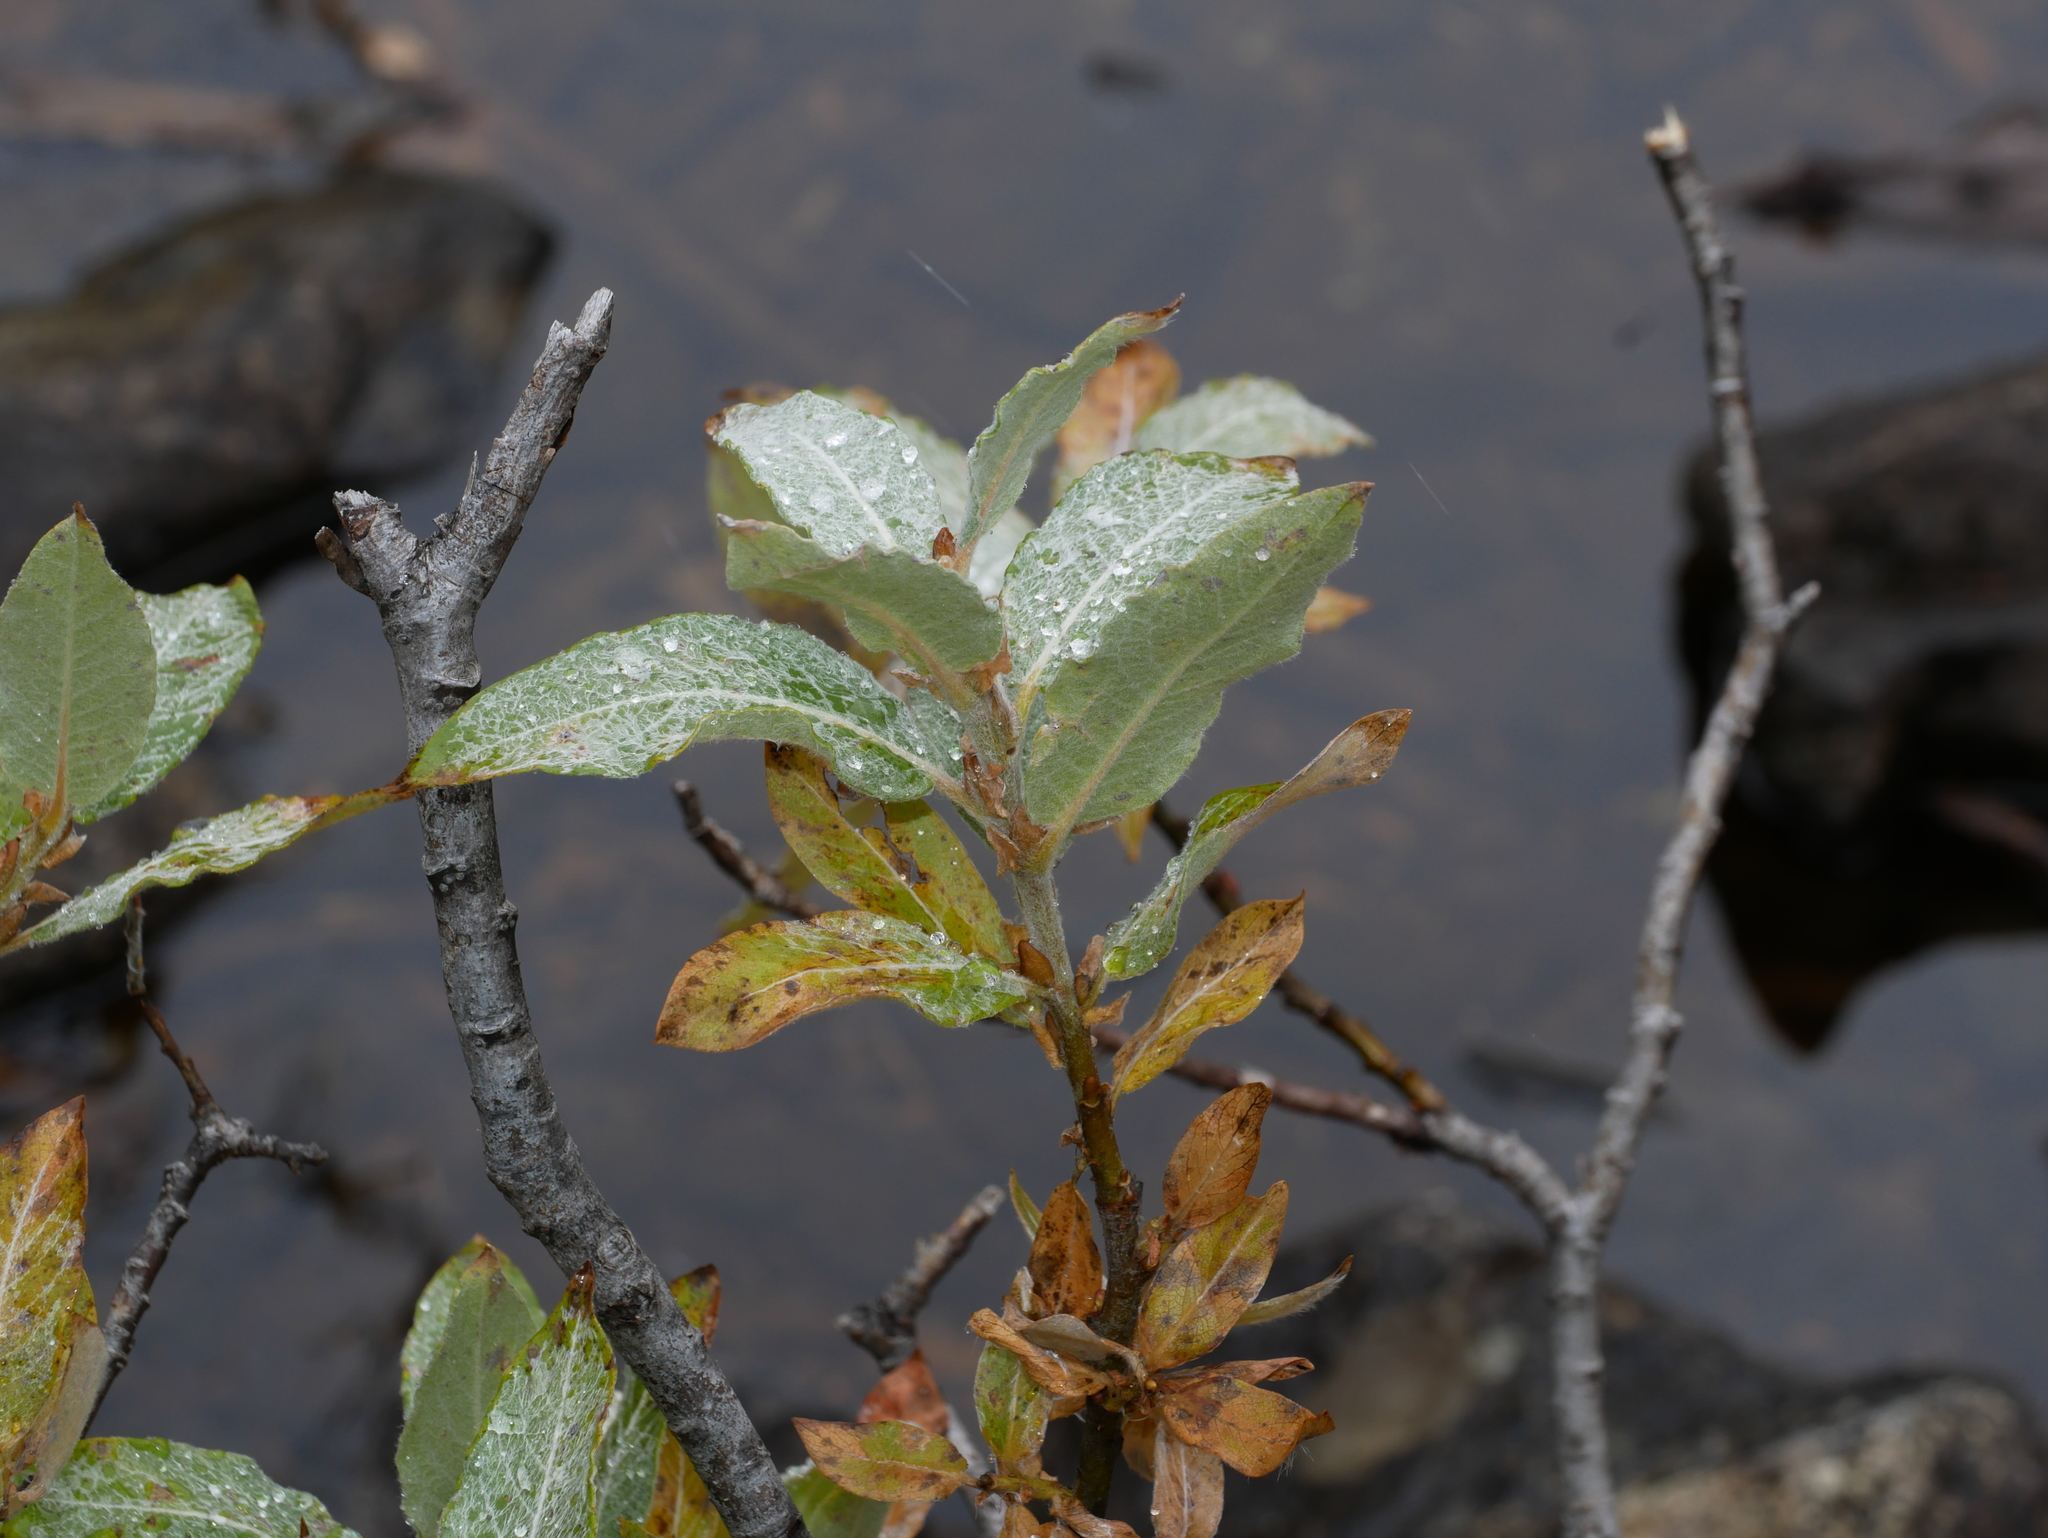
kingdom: Plantae
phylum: Tracheophyta
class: Magnoliopsida
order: Malpighiales
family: Salicaceae
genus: Salix
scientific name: Salix commutata
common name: Under-green willow
